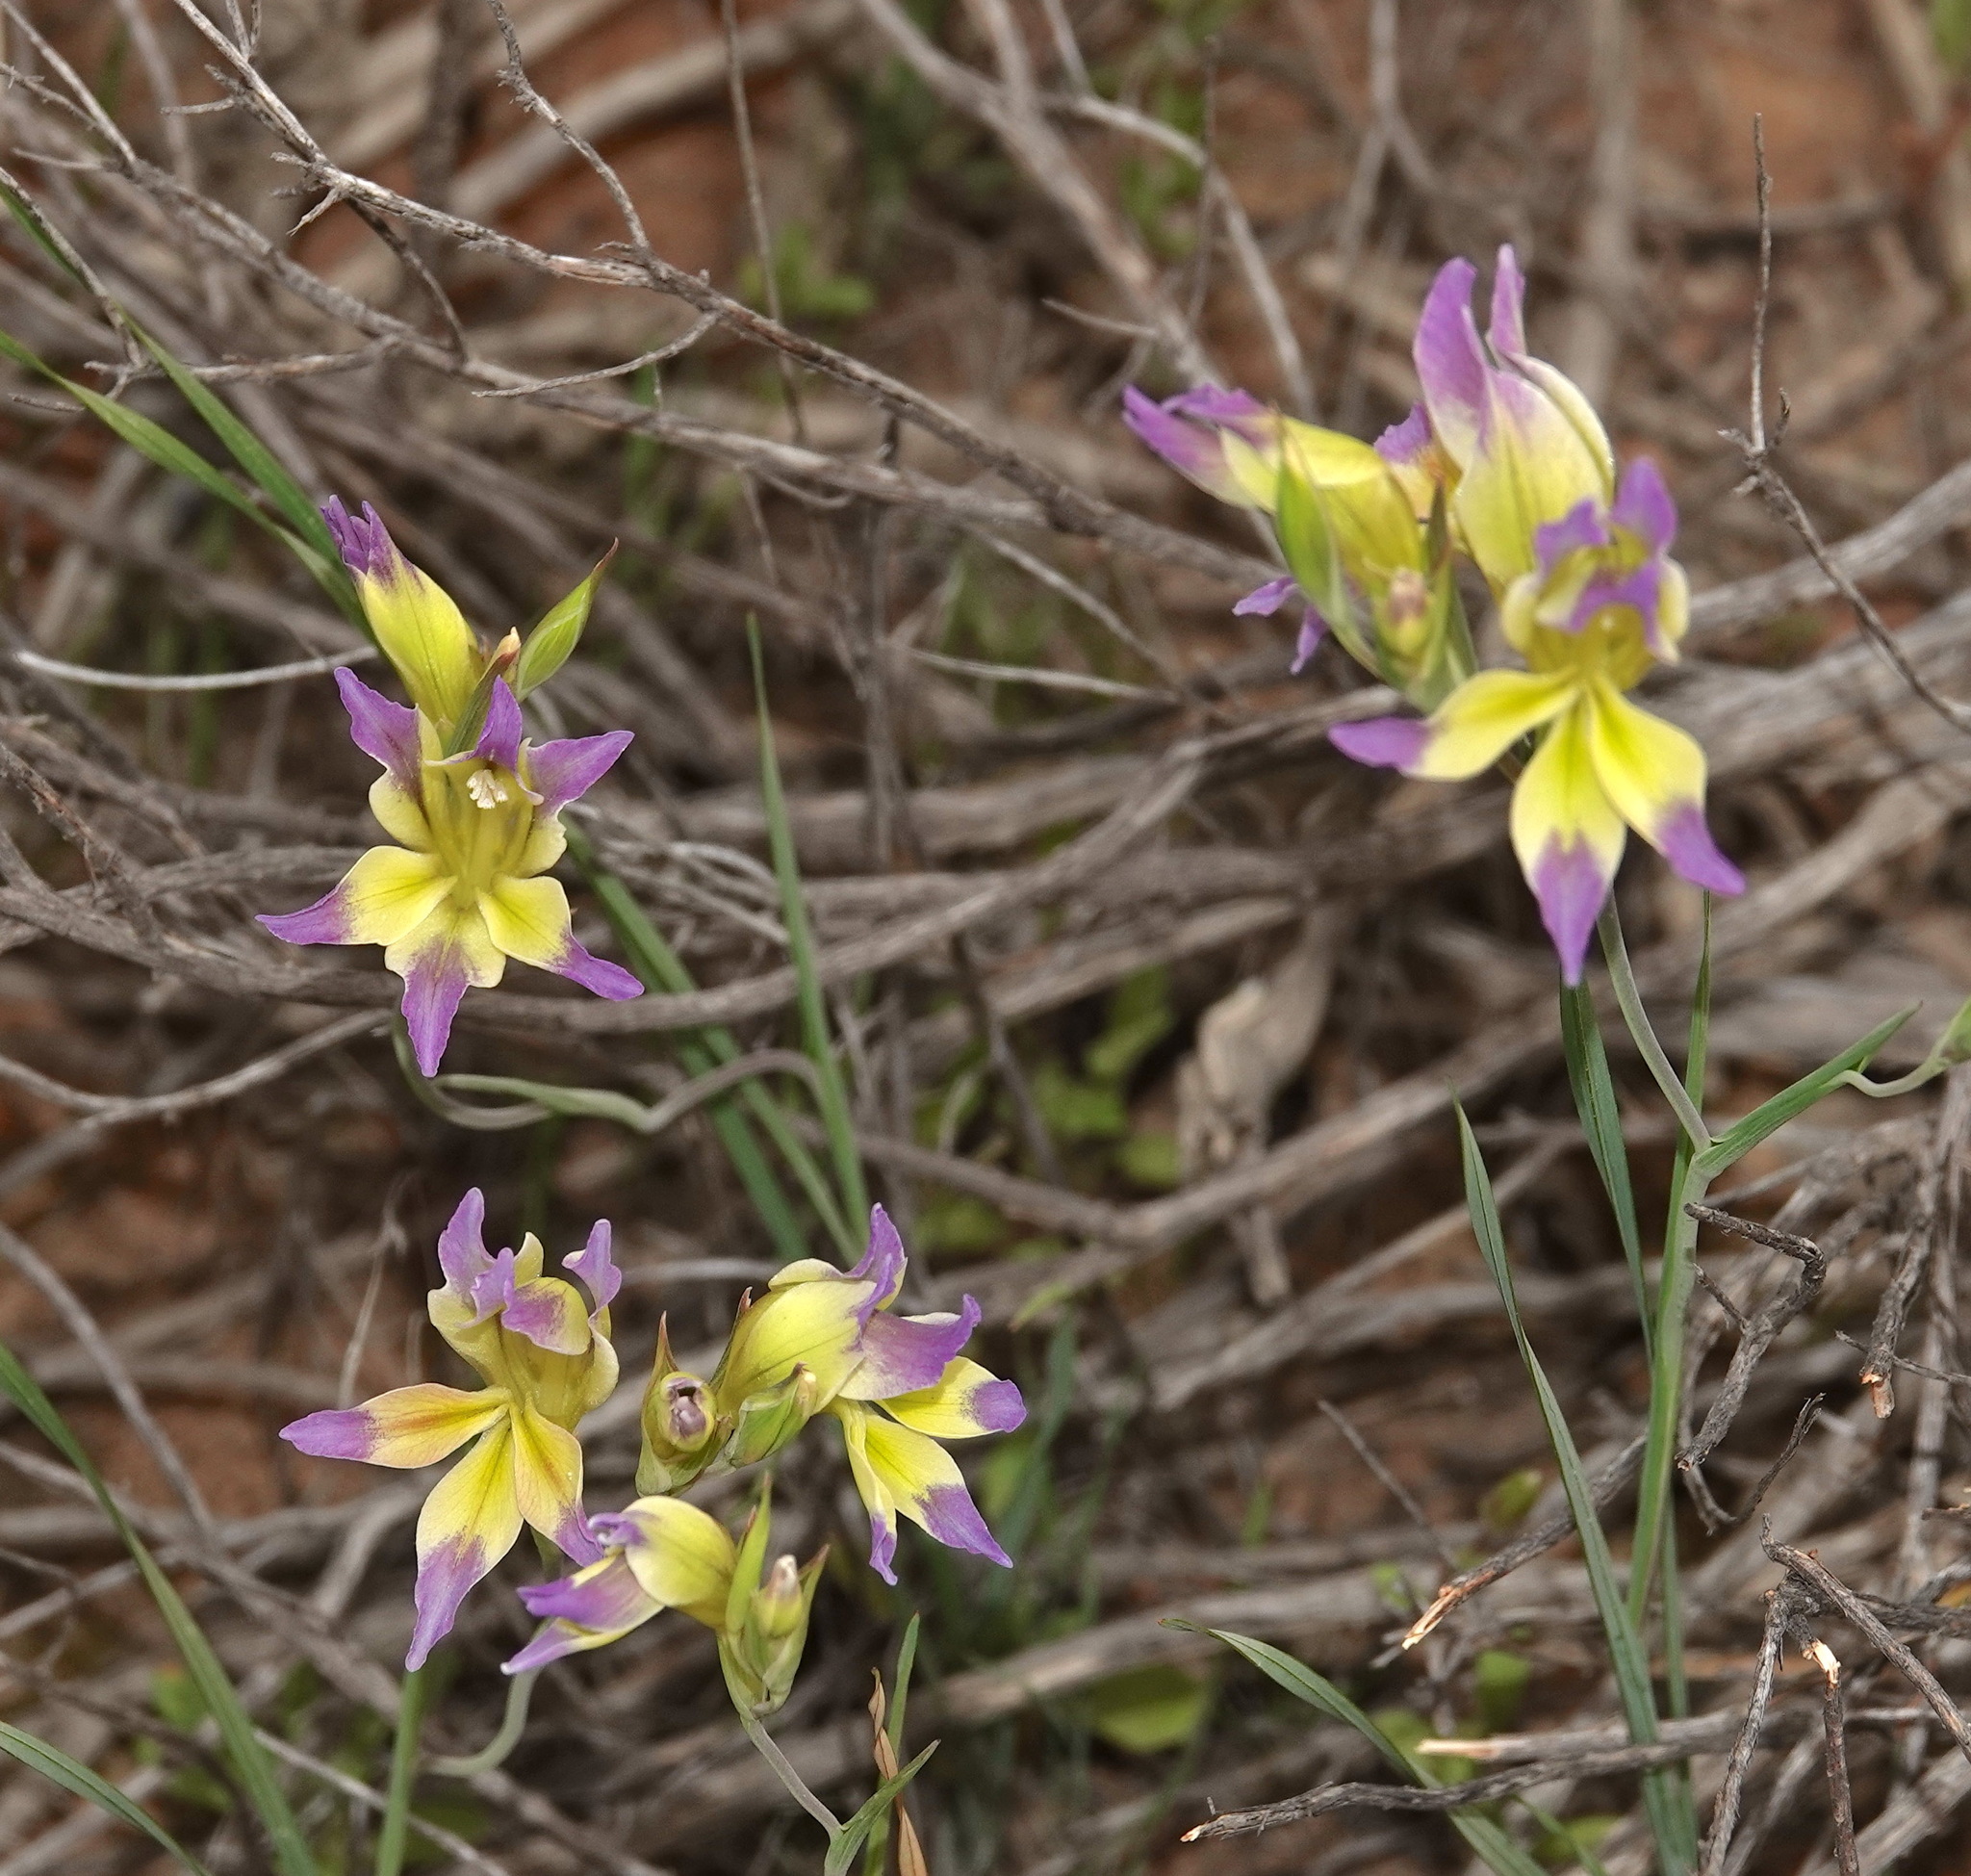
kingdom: Plantae
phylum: Tracheophyta
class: Liliopsida
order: Asparagales
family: Iridaceae
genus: Gladiolus
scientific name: Gladiolus venustus
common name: Purple kalkoentjie
